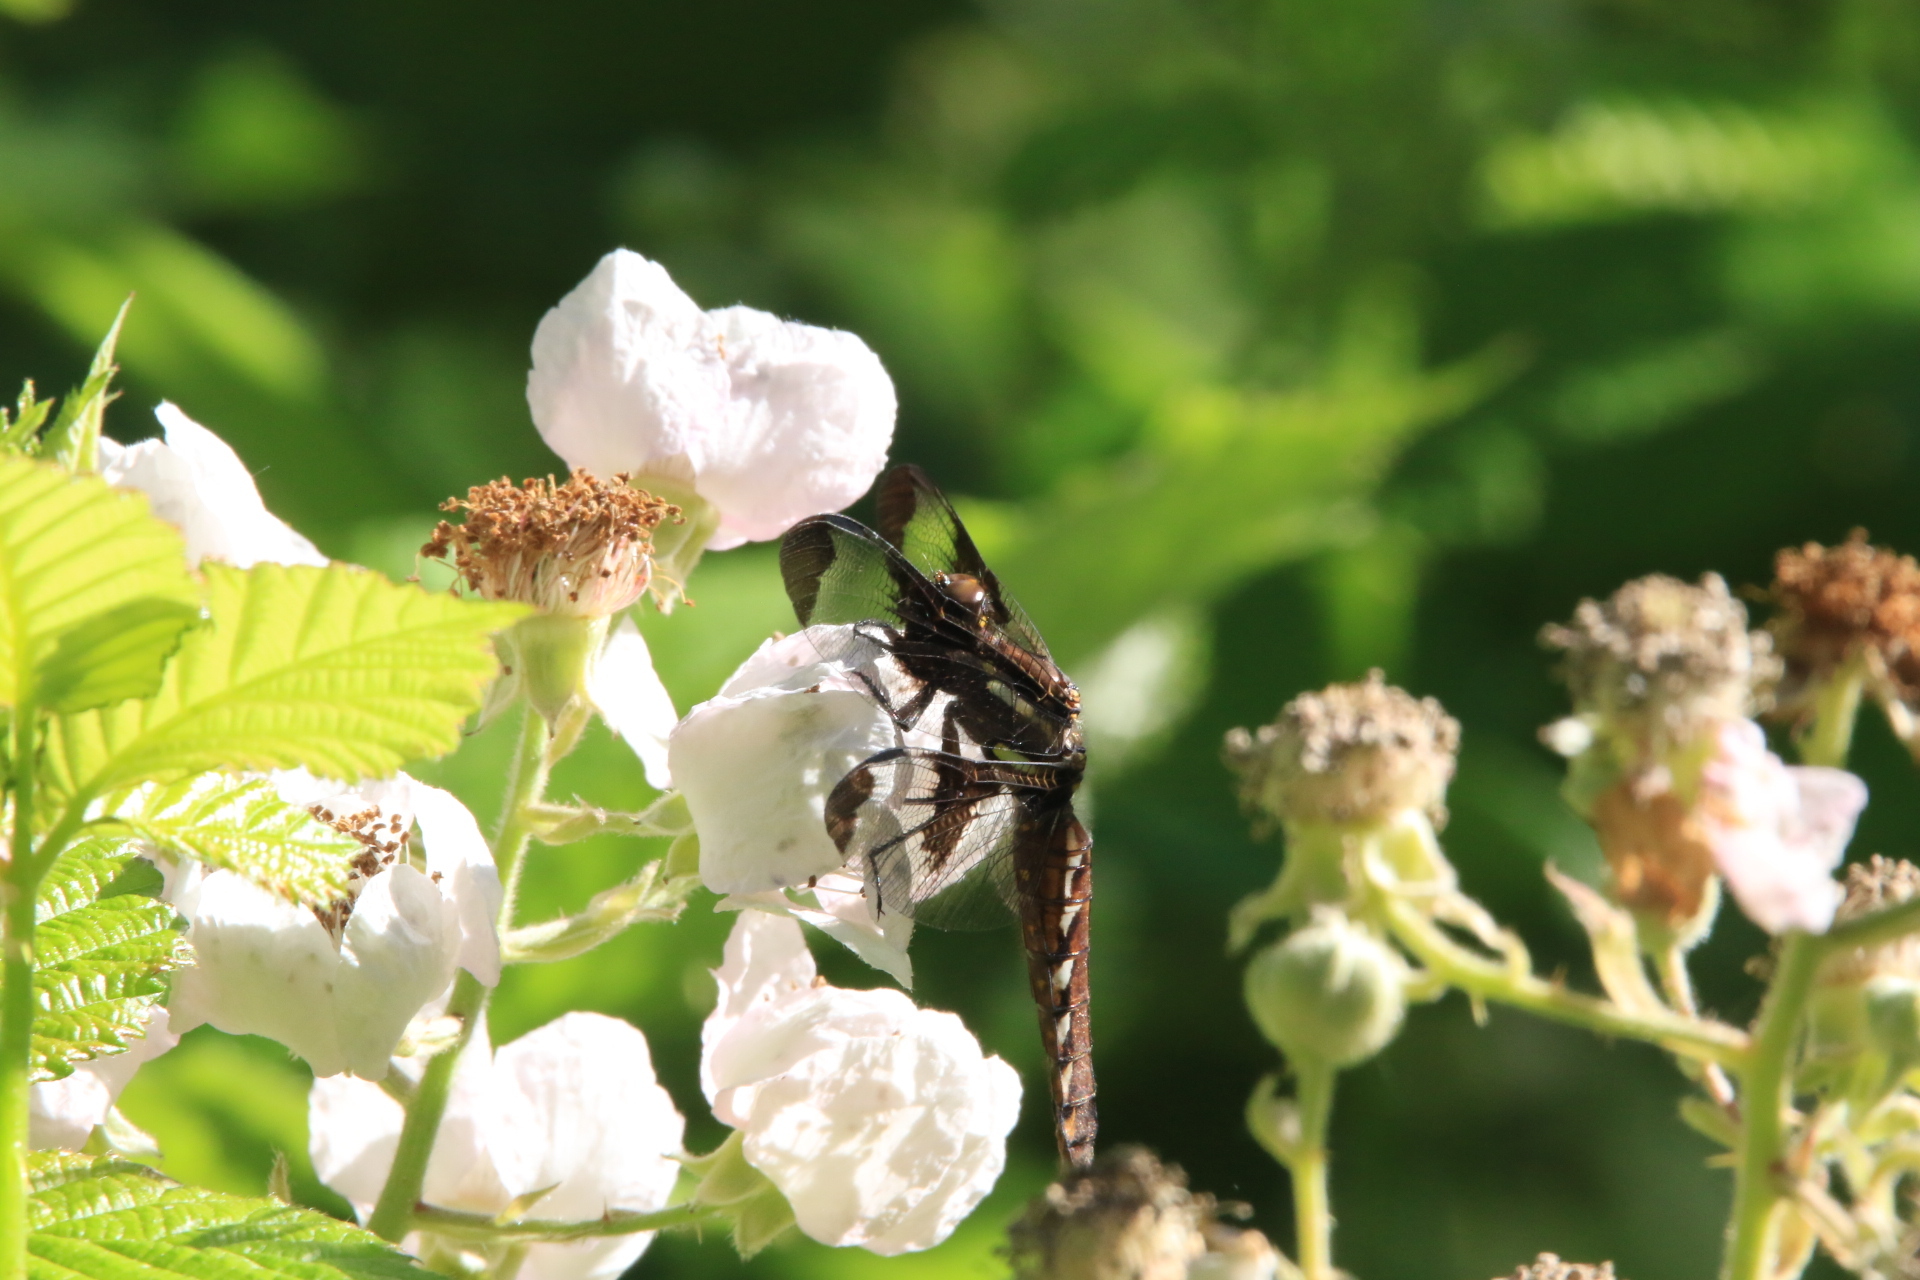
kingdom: Animalia
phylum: Arthropoda
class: Insecta
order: Odonata
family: Libellulidae
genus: Plathemis
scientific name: Plathemis lydia
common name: Common whitetail
